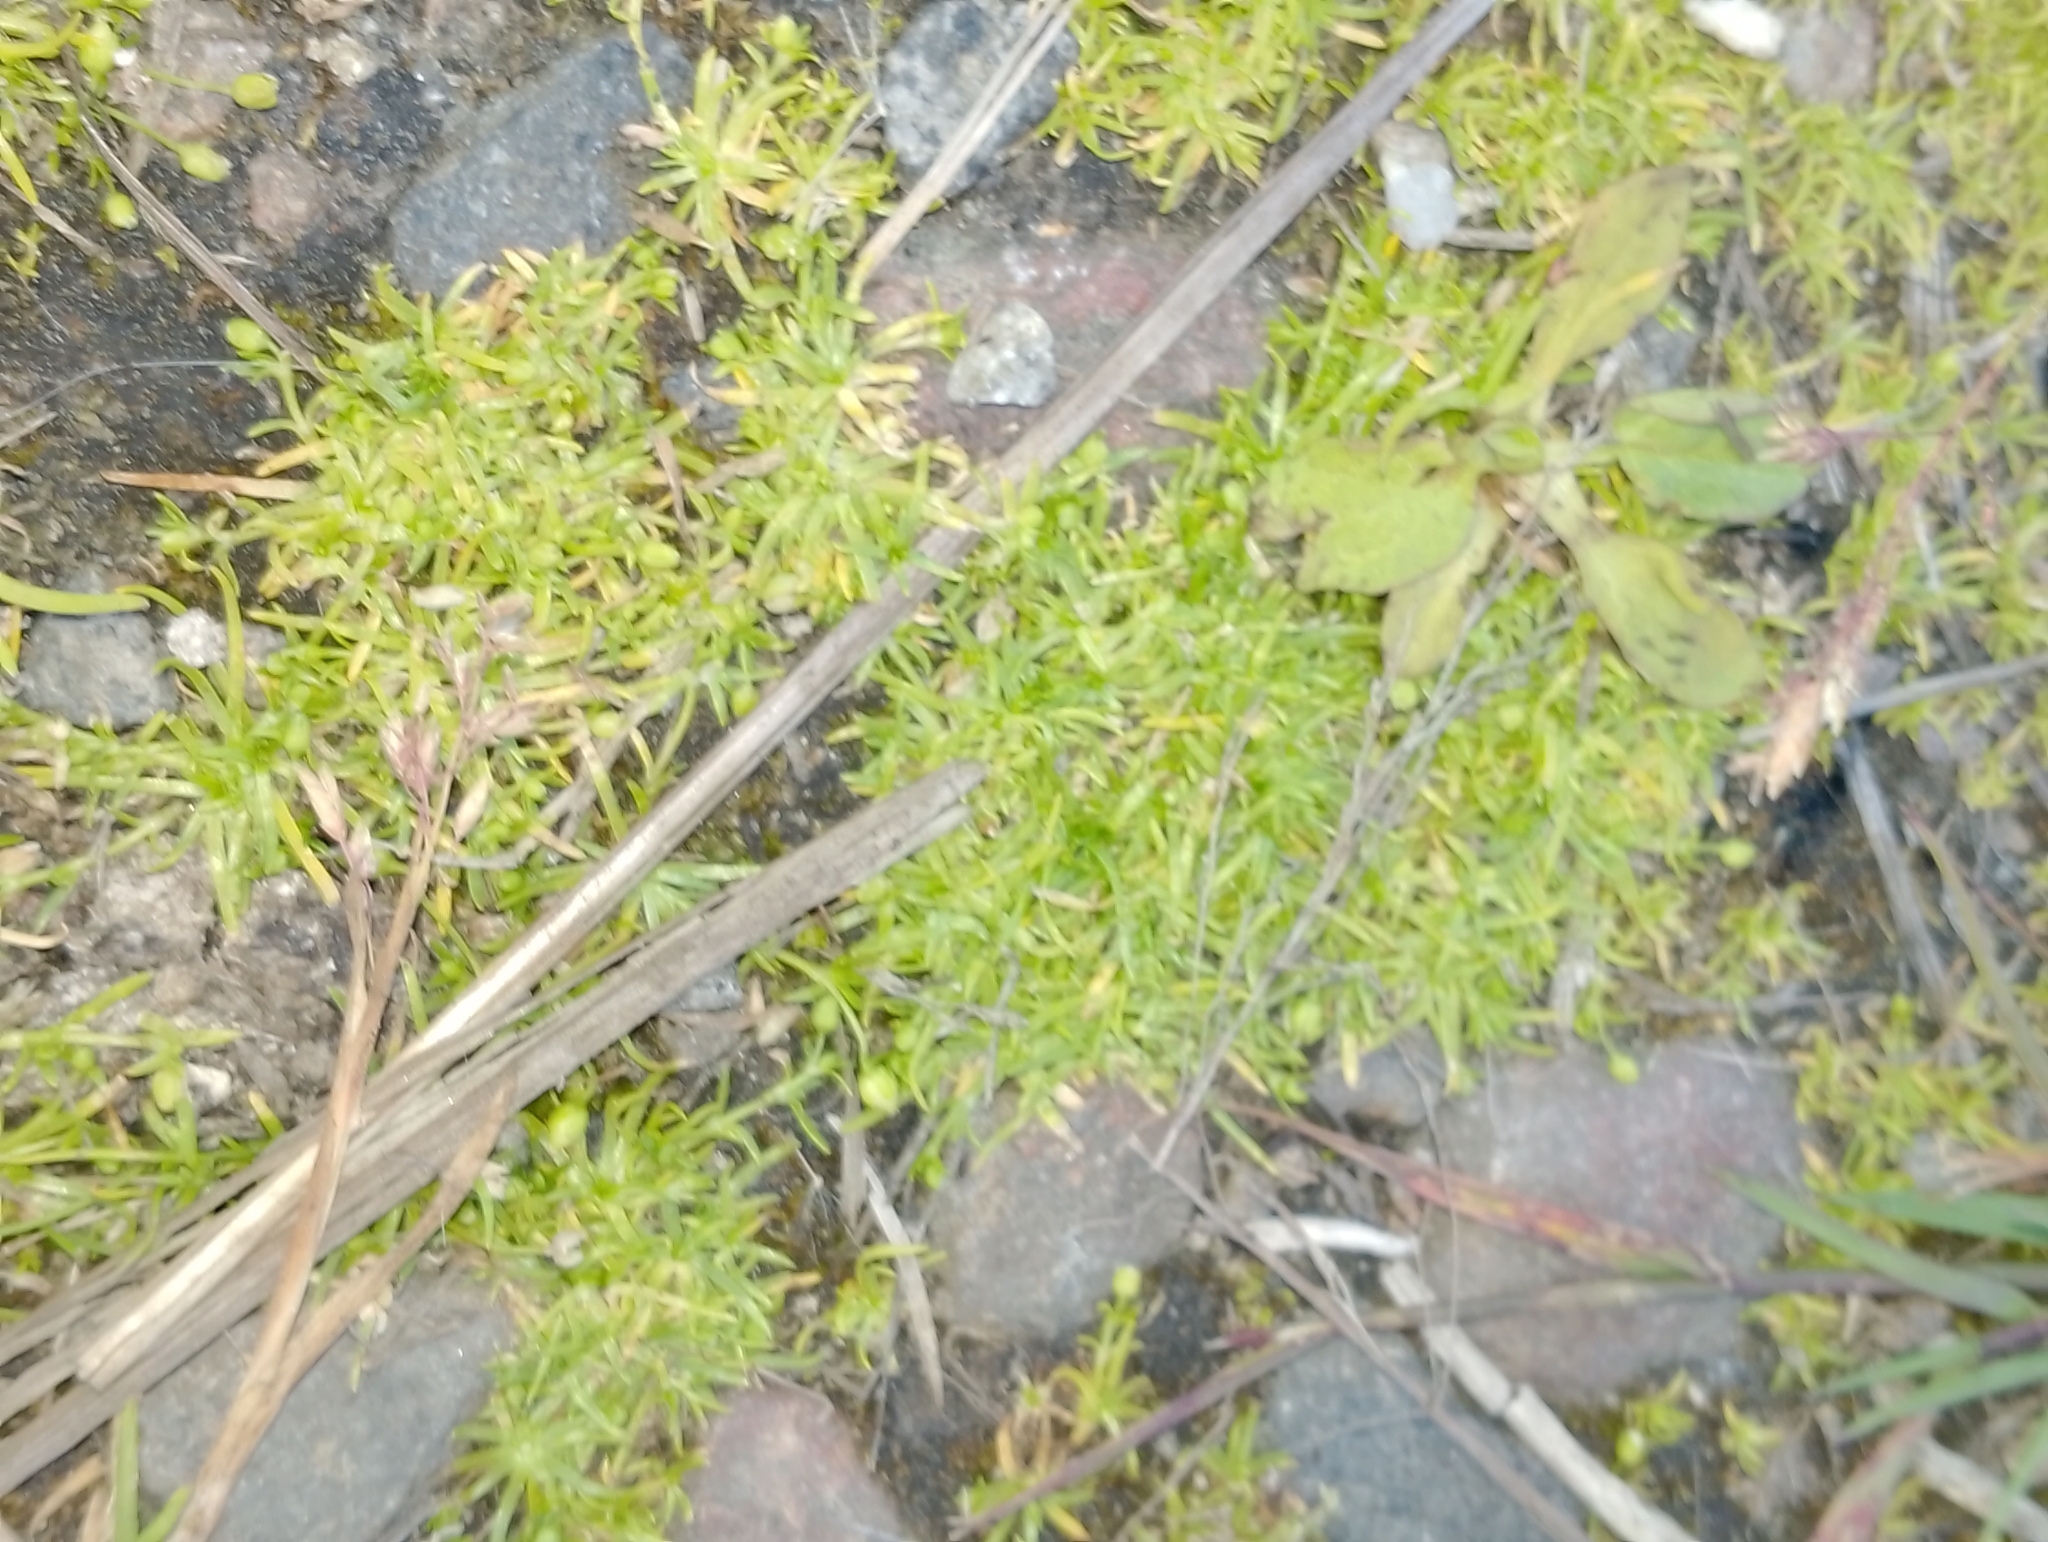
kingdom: Plantae
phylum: Tracheophyta
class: Magnoliopsida
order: Caryophyllales
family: Caryophyllaceae
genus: Sagina
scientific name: Sagina procumbens
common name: Procumbent pearlwort
